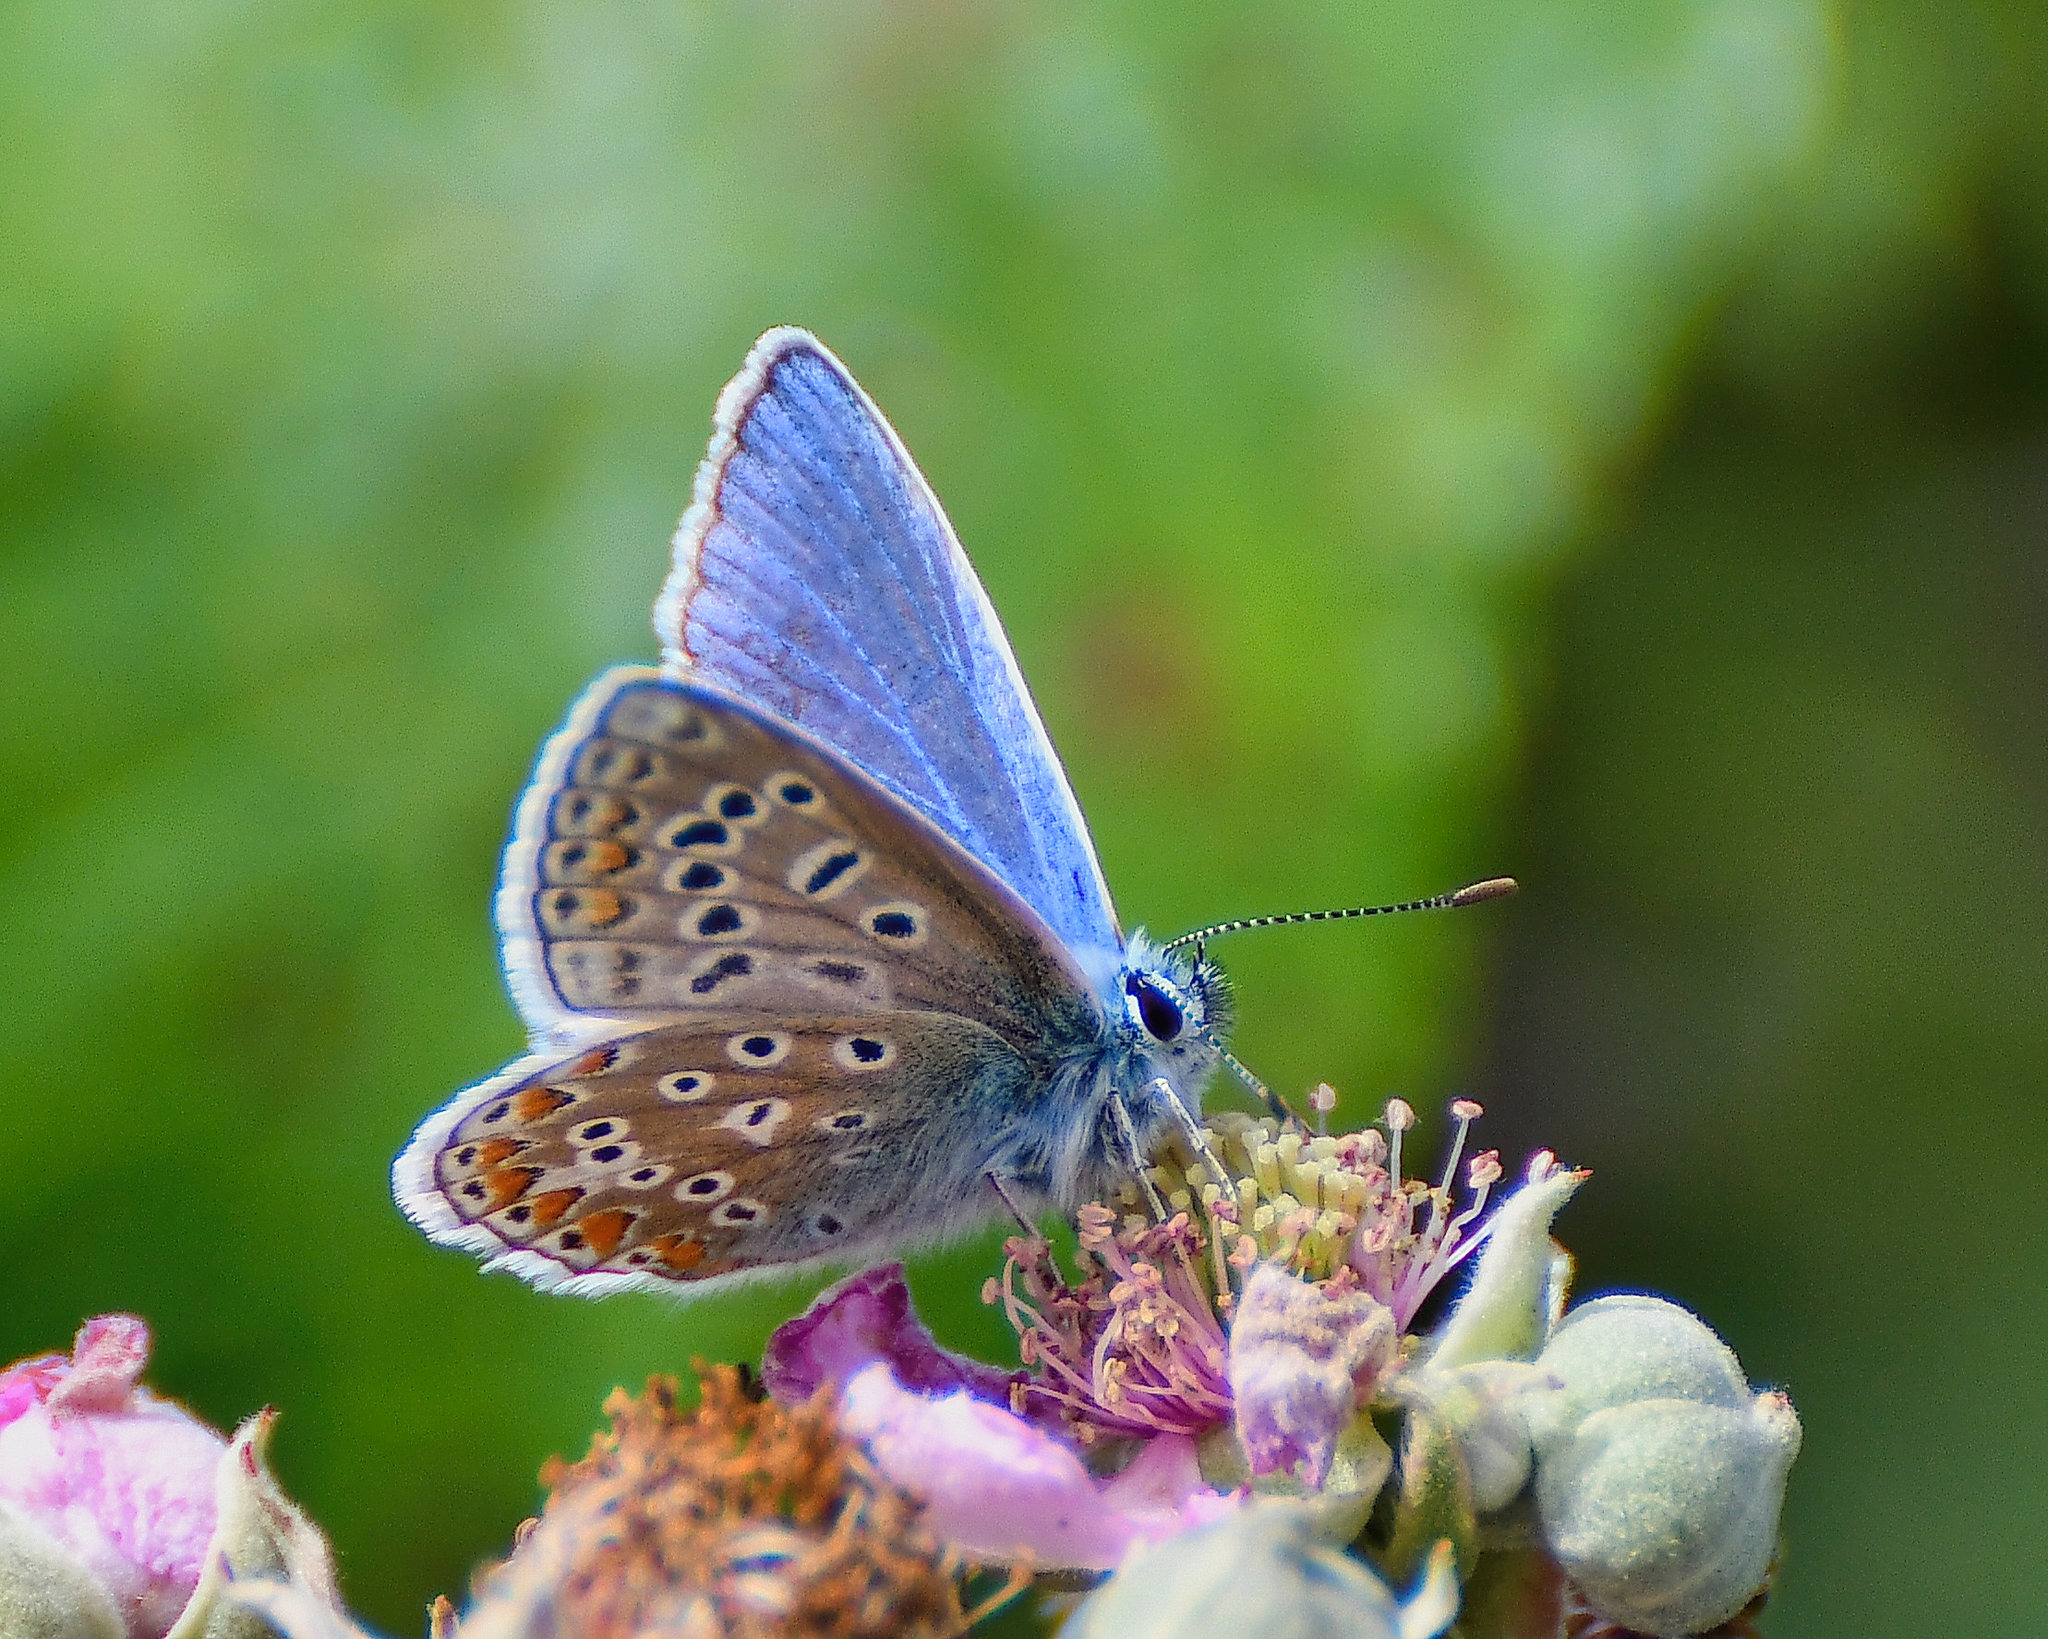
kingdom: Animalia
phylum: Arthropoda
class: Insecta
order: Lepidoptera
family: Lycaenidae
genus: Polyommatus
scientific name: Polyommatus icarus
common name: Common blue
